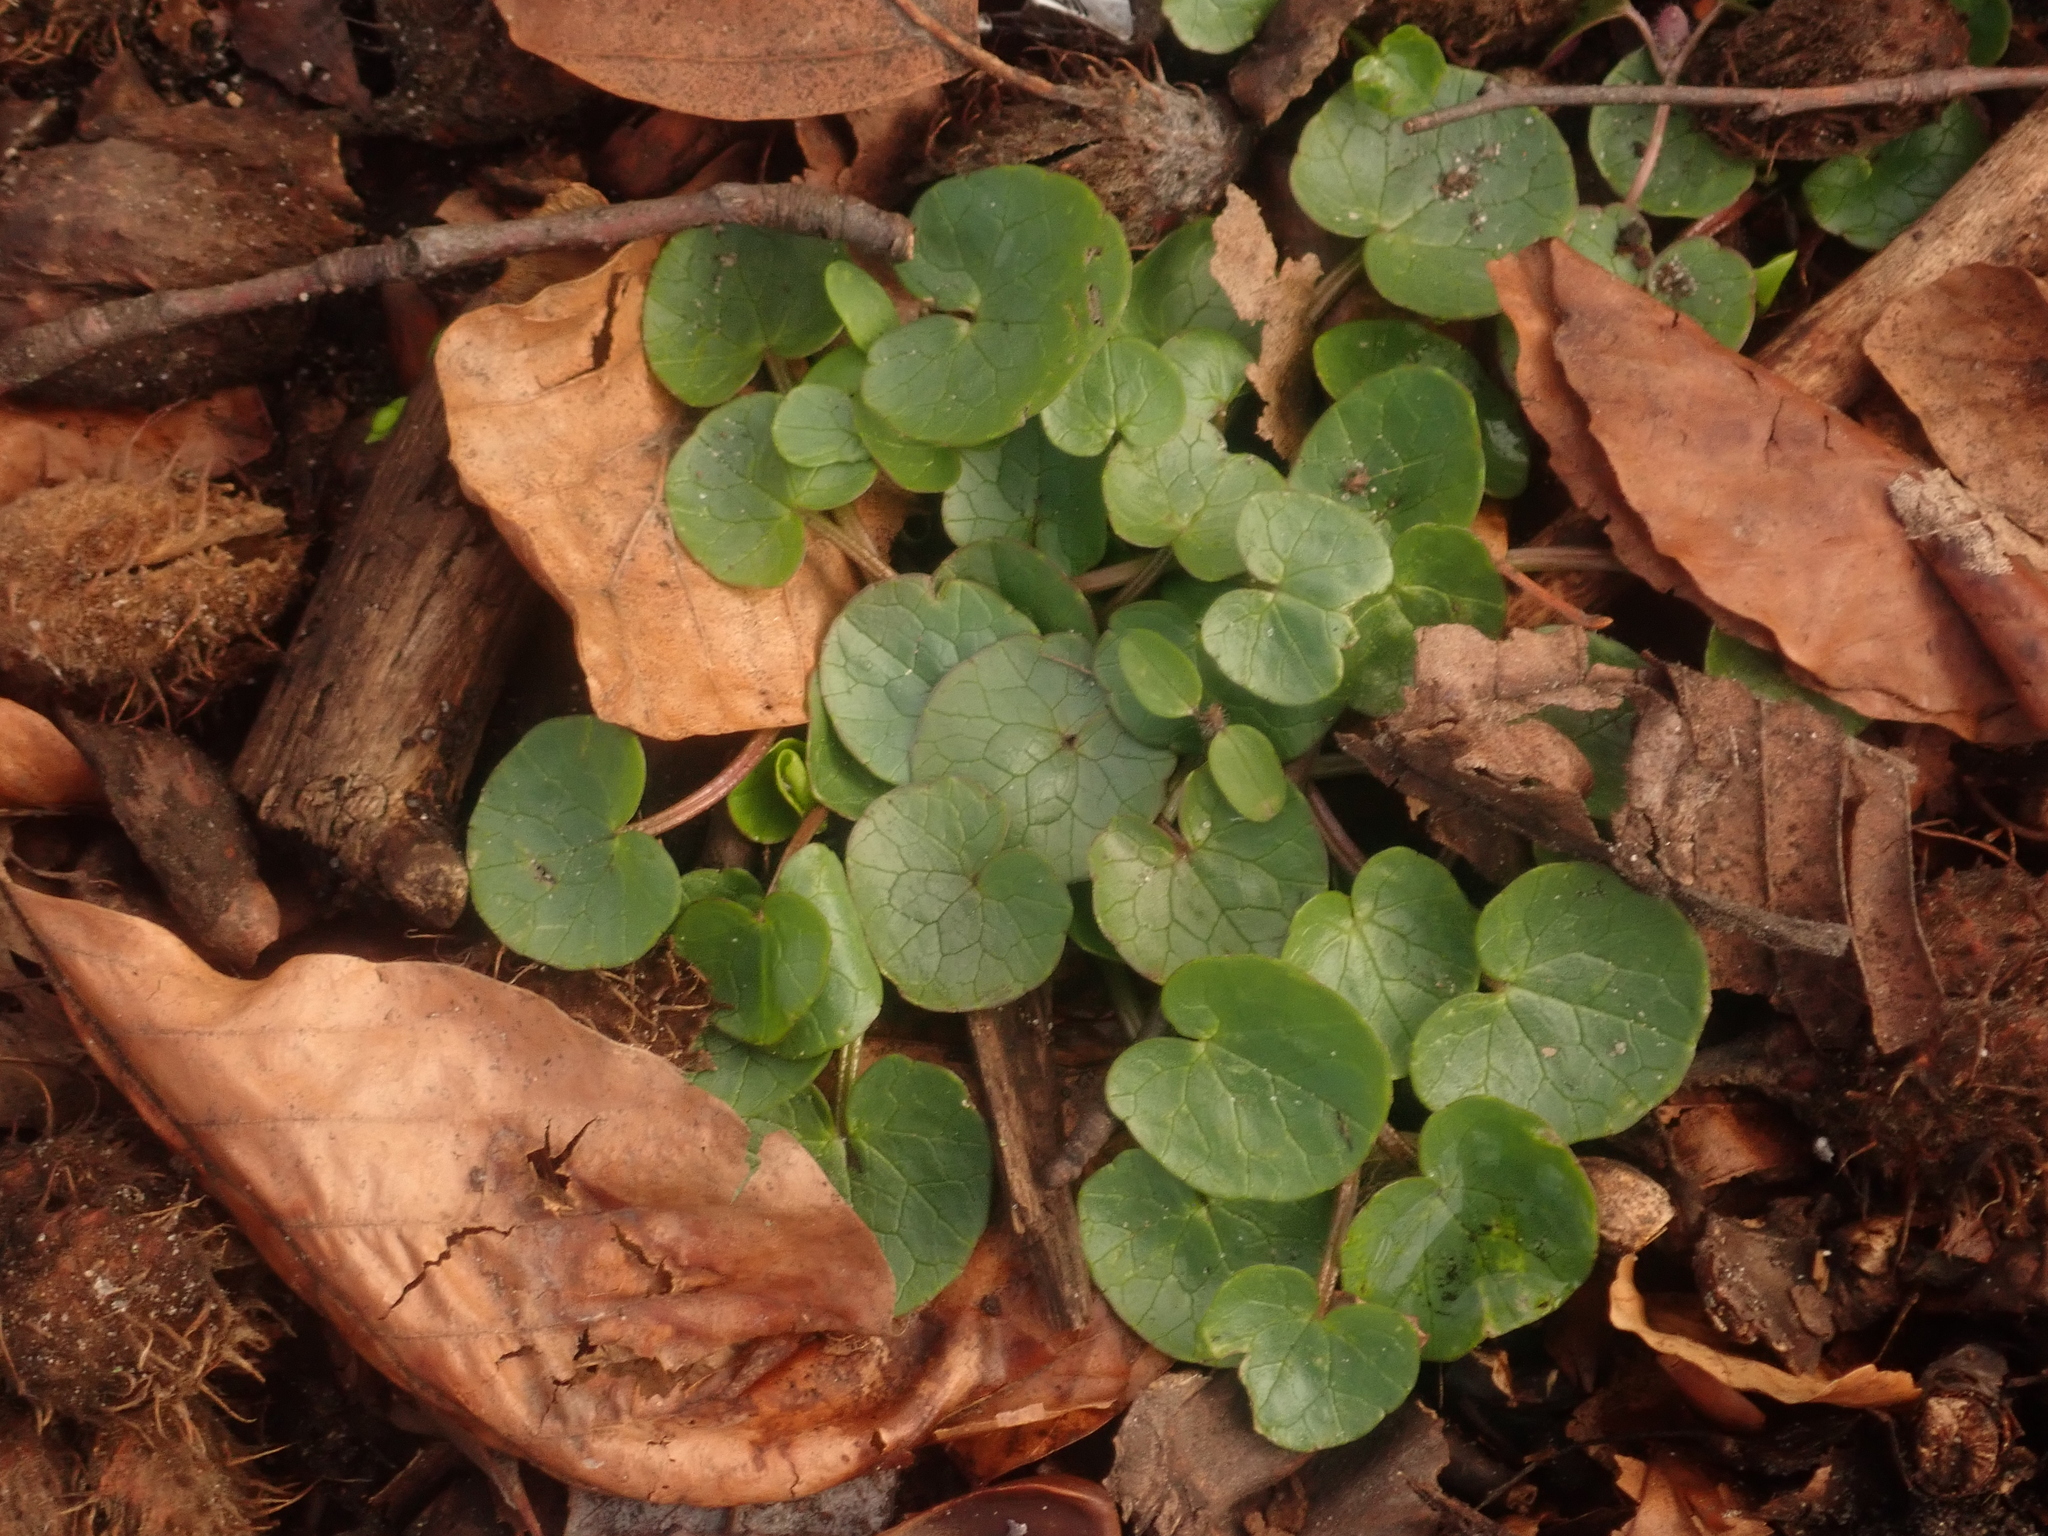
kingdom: Plantae
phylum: Tracheophyta
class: Magnoliopsida
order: Ranunculales
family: Ranunculaceae
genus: Ficaria
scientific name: Ficaria verna
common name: Lesser celandine
